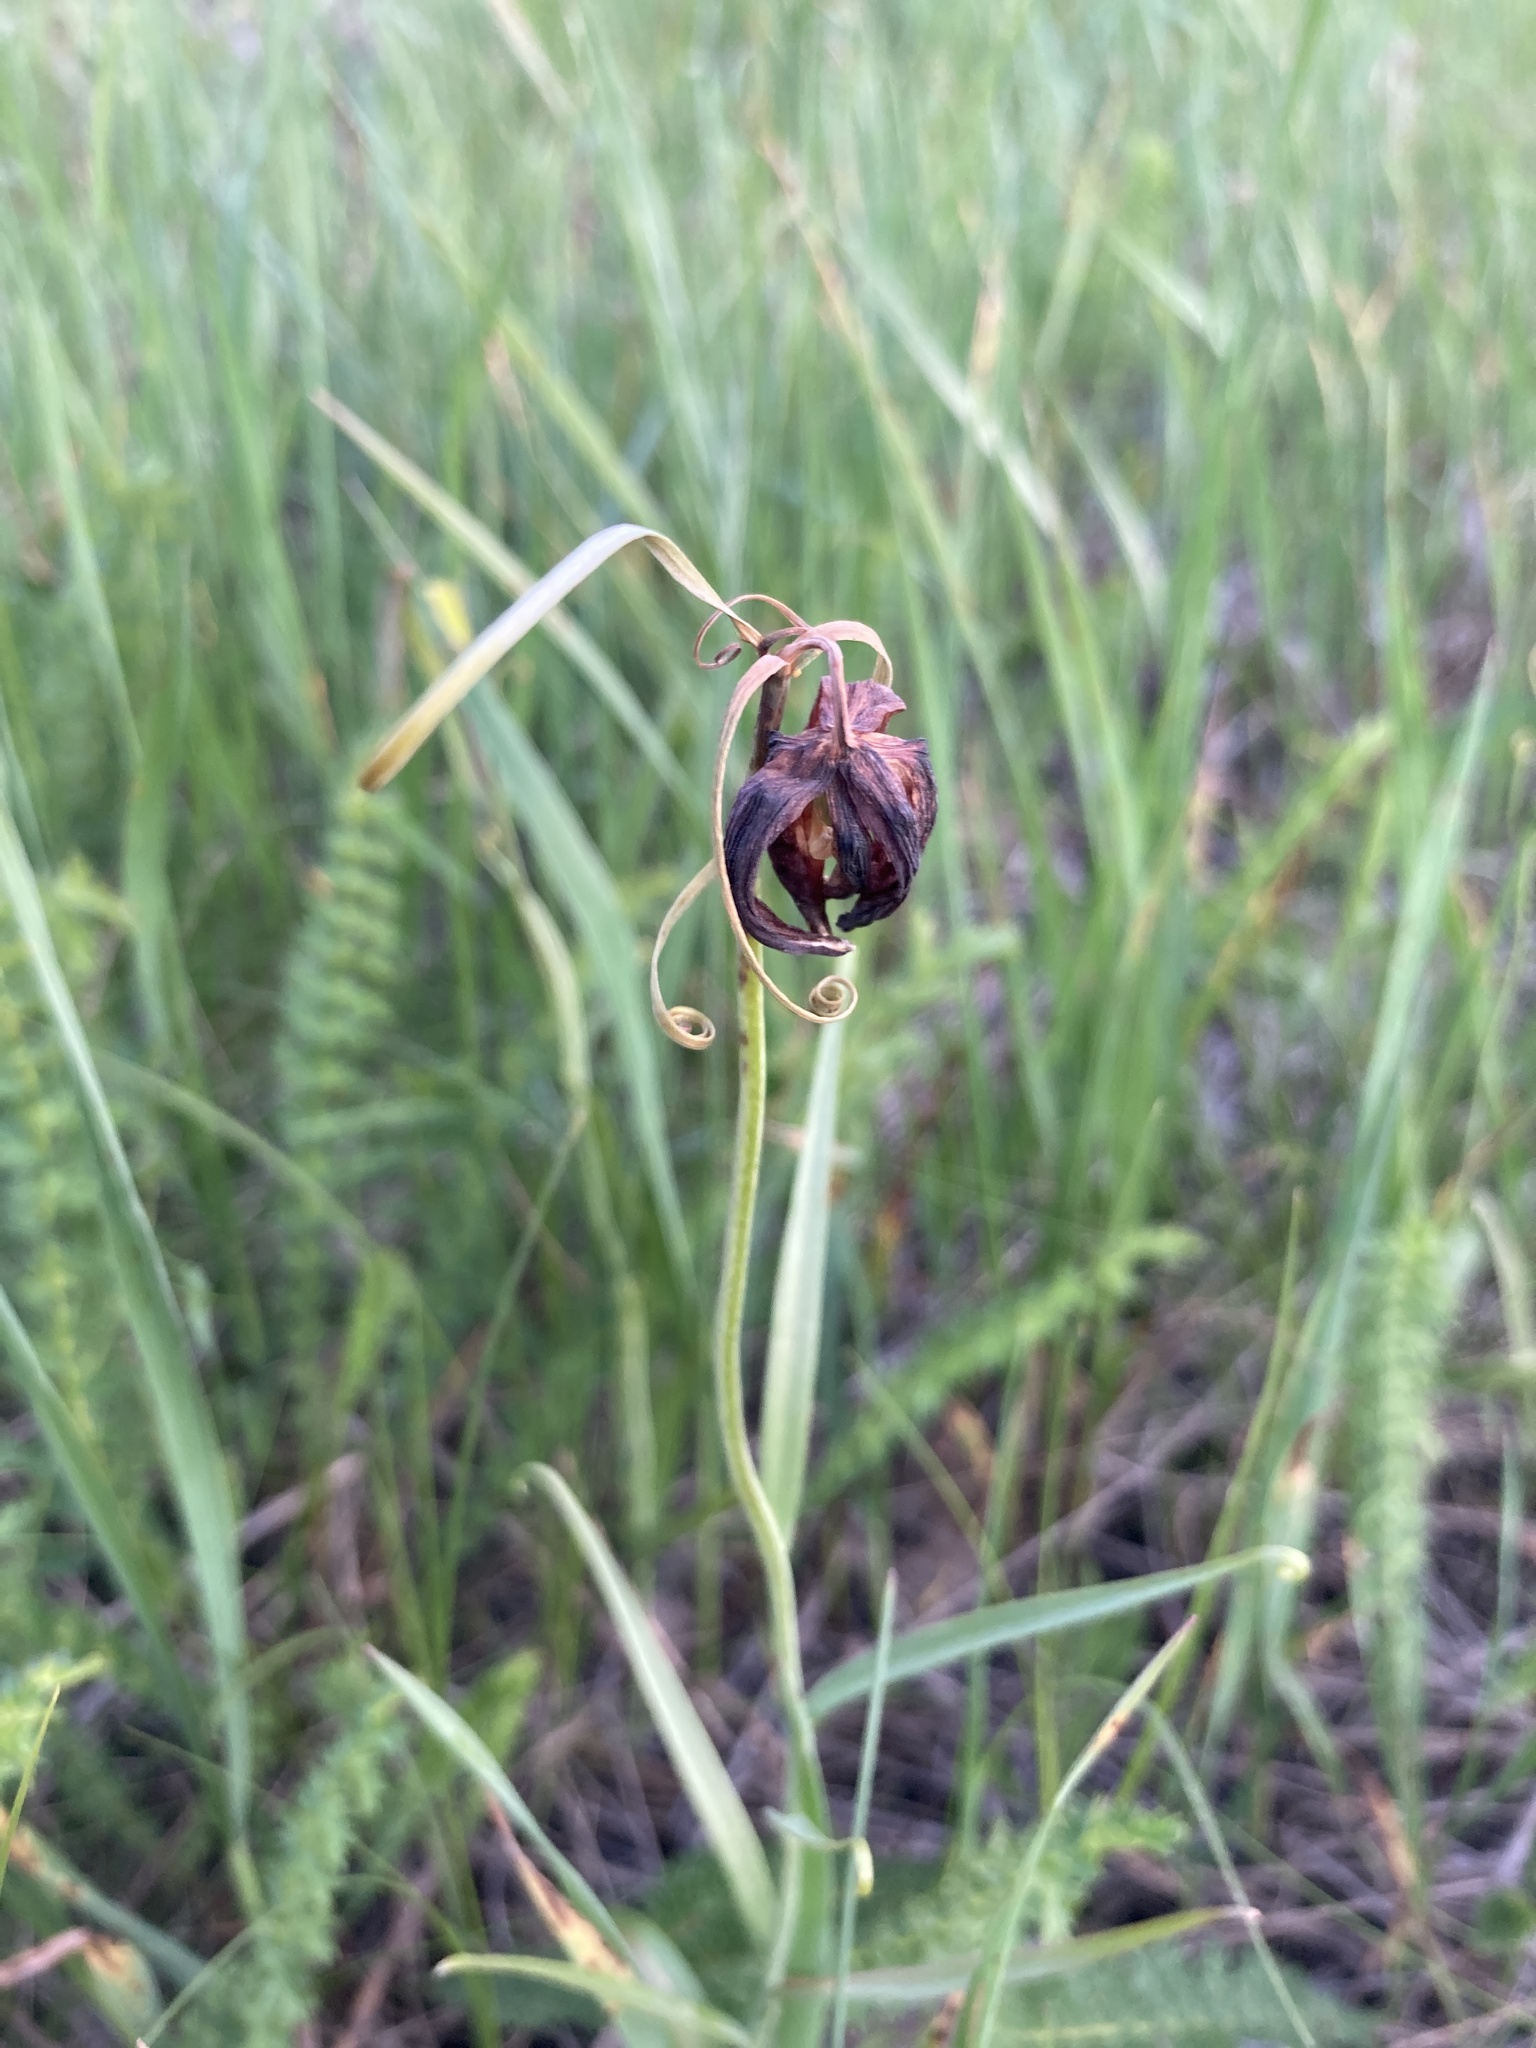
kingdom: Plantae
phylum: Tracheophyta
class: Liliopsida
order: Liliales
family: Liliaceae
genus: Fritillaria
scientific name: Fritillaria ruthenica
